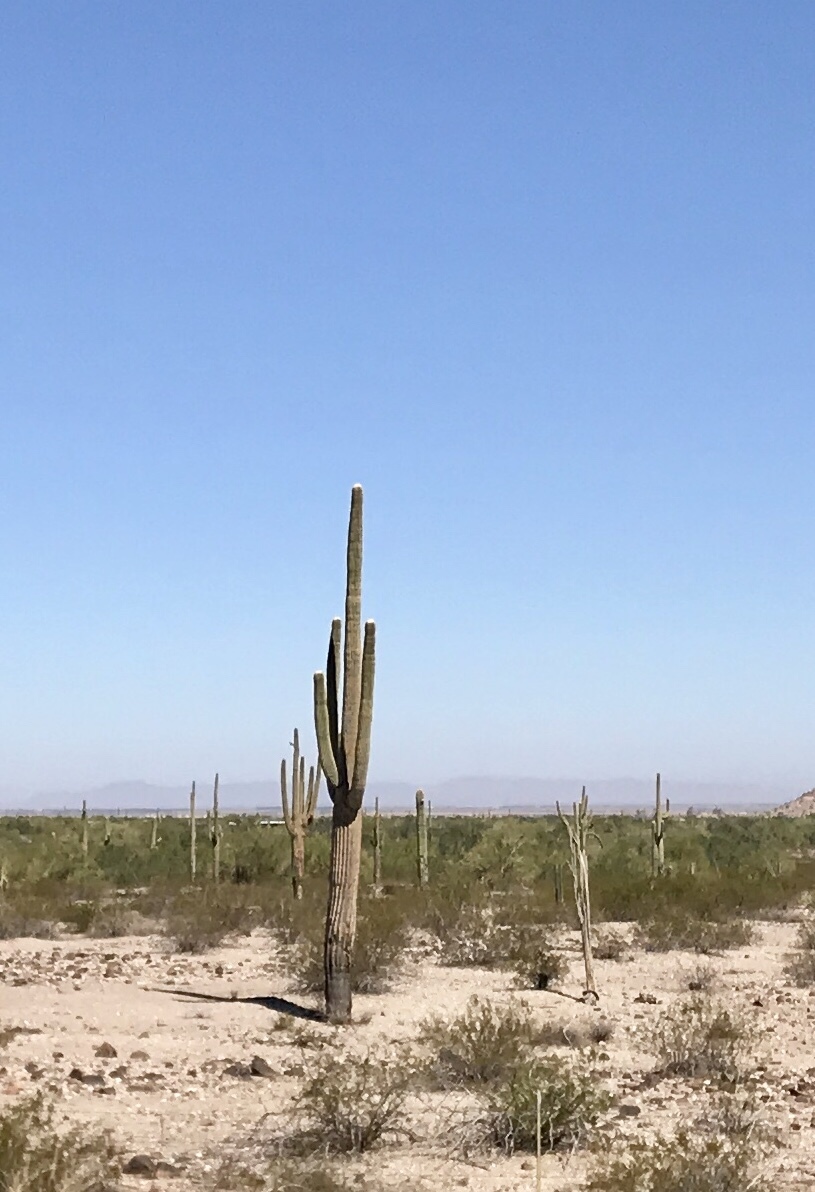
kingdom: Plantae
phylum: Tracheophyta
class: Magnoliopsida
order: Caryophyllales
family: Cactaceae
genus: Carnegiea
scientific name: Carnegiea gigantea
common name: Saguaro
